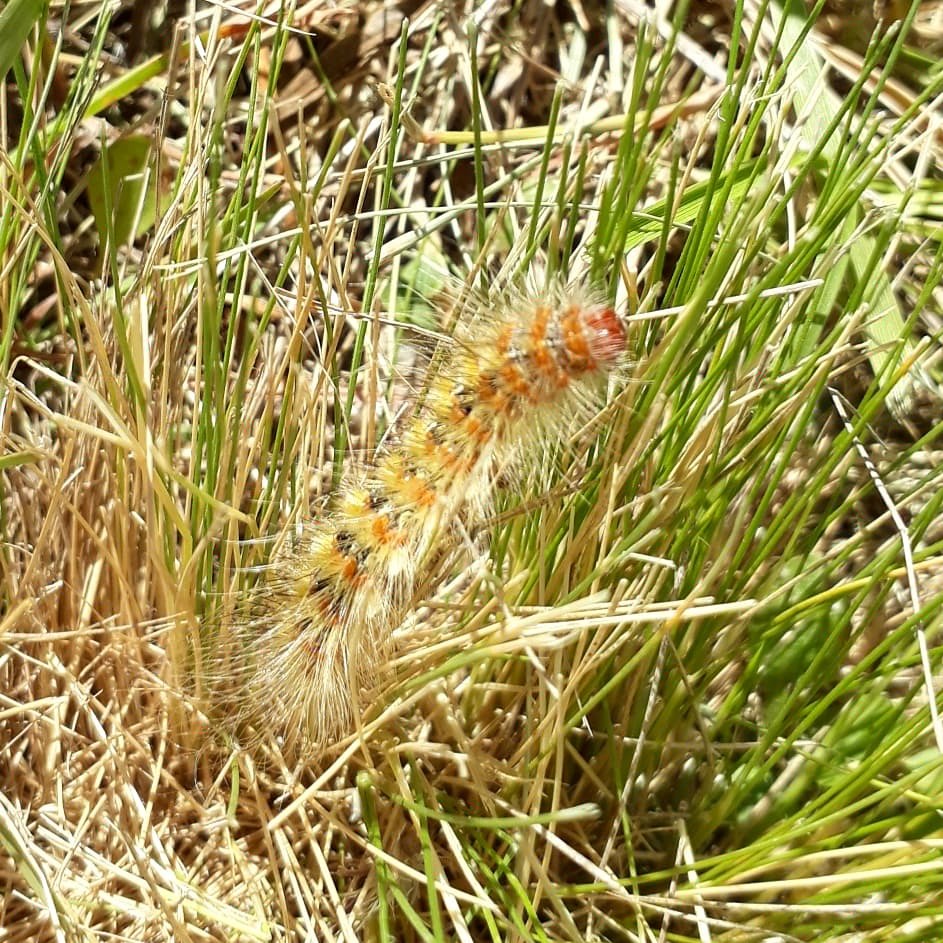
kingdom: Animalia
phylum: Arthropoda
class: Insecta
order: Lepidoptera
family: Erebidae
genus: Paracles
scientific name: Paracles deserticola
